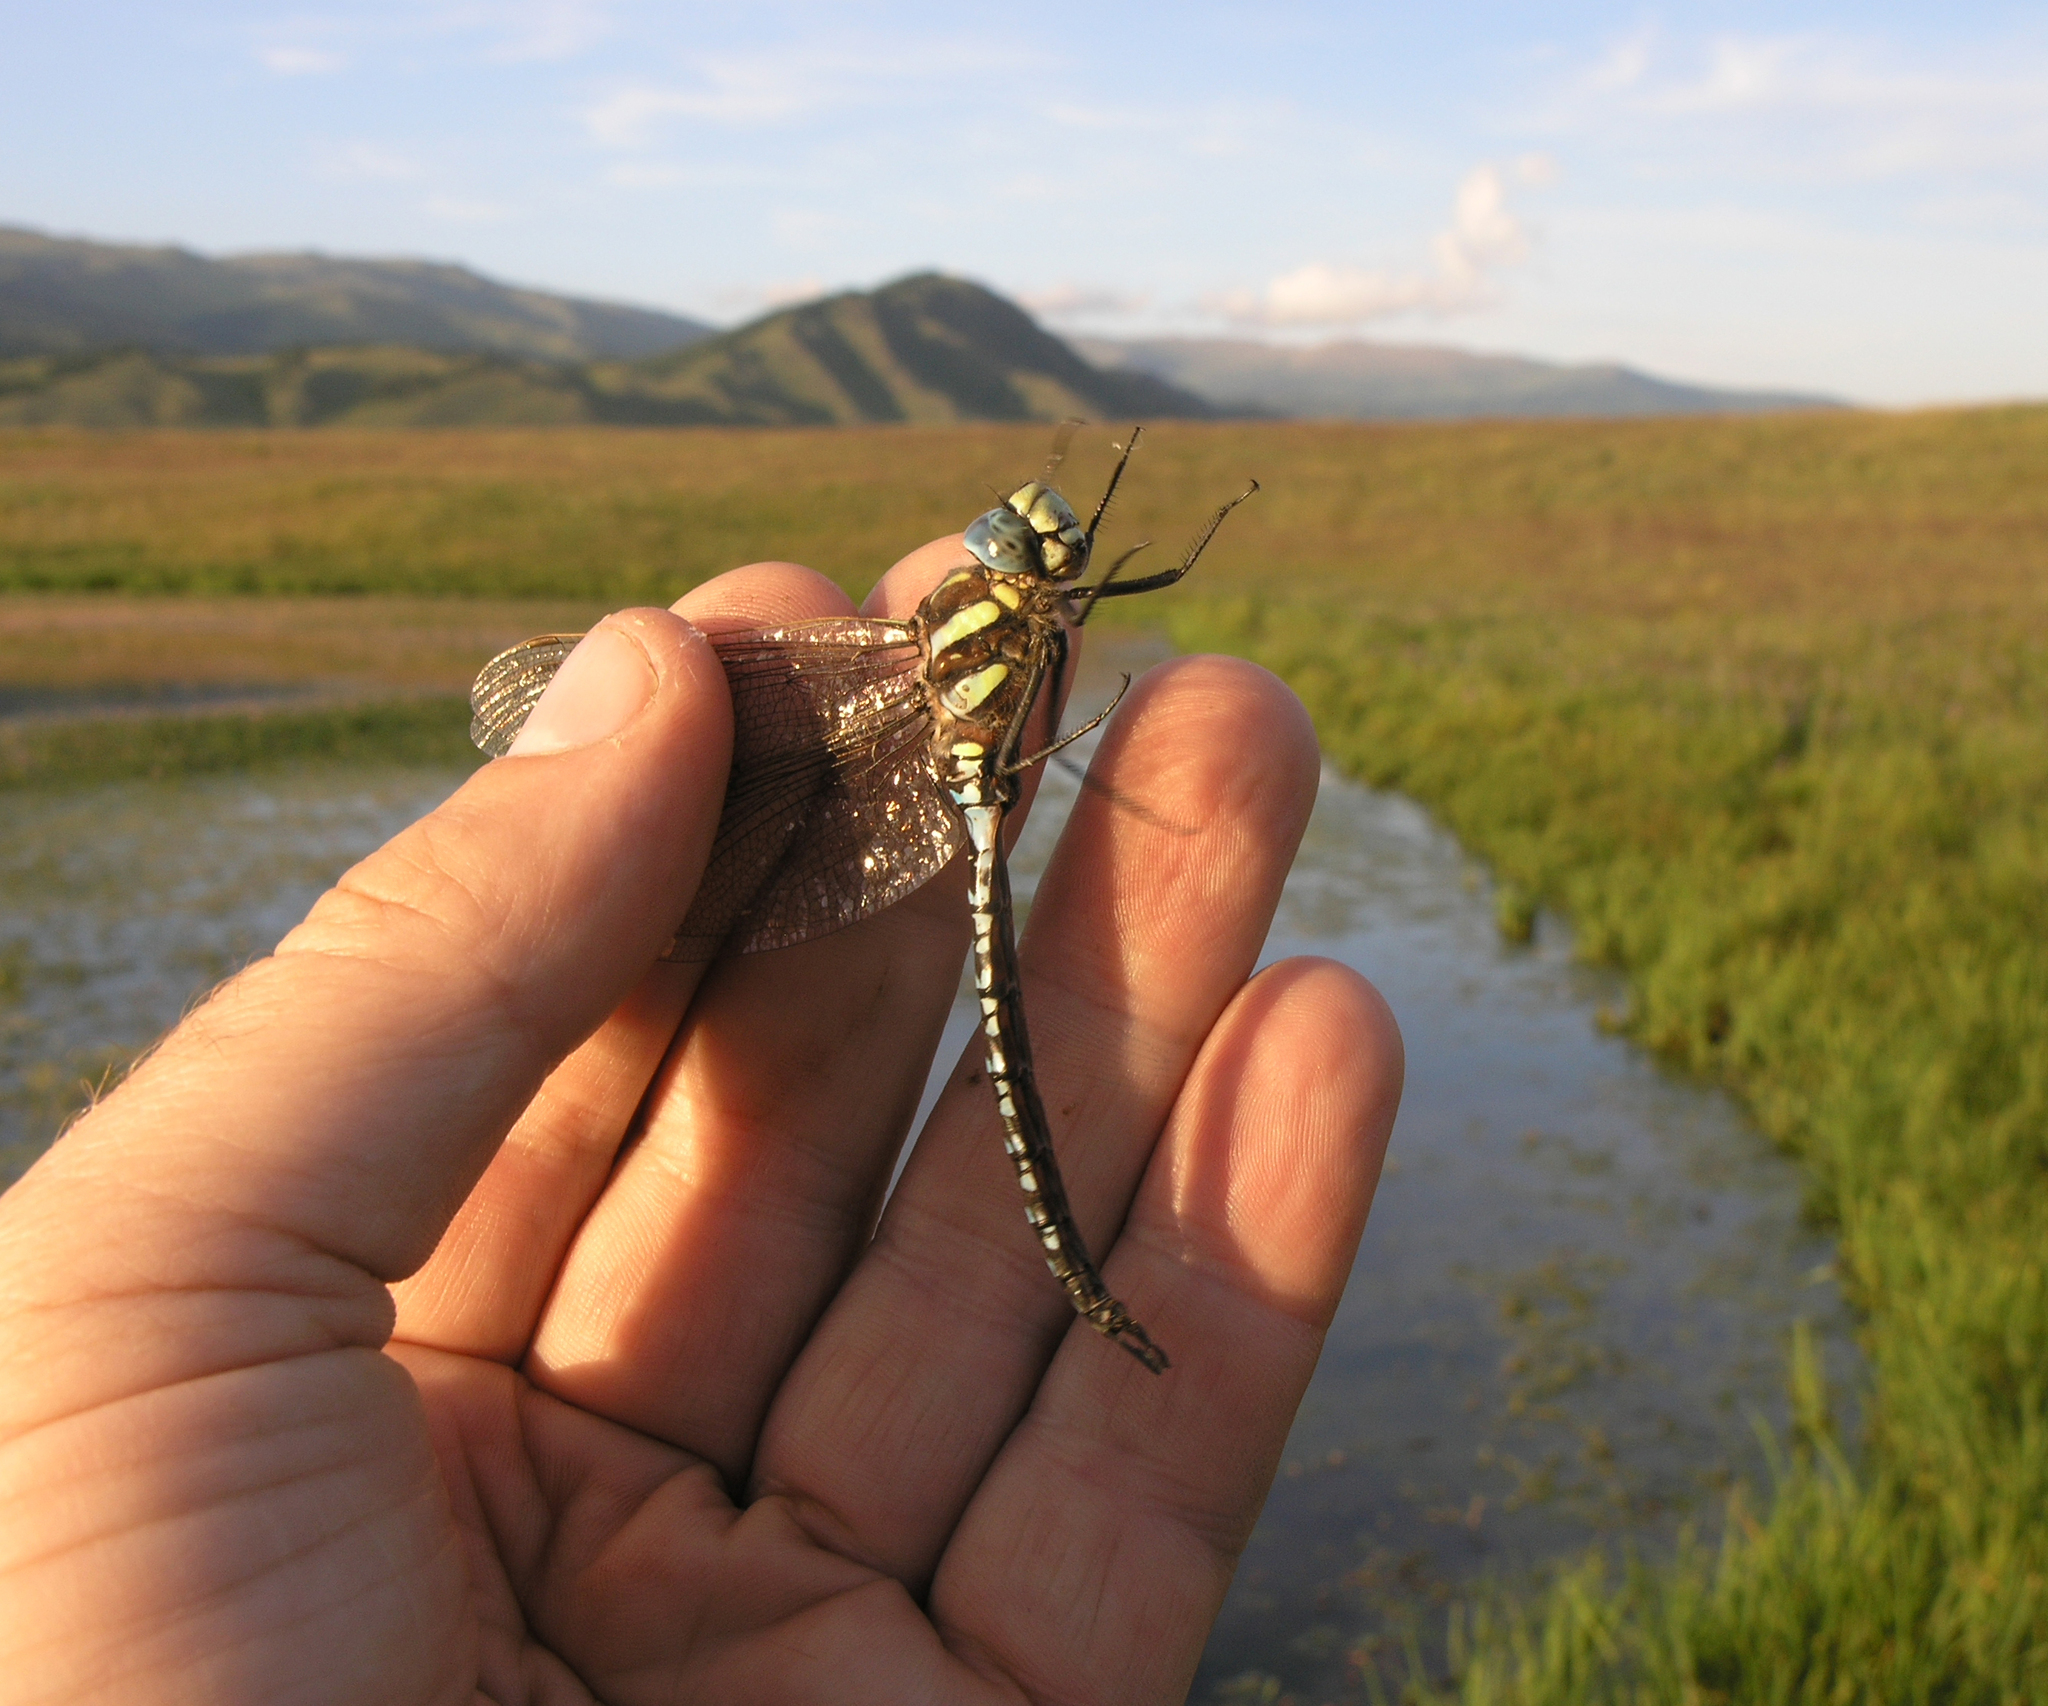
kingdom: Animalia
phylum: Arthropoda
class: Insecta
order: Odonata
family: Aeshnidae
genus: Aeshna
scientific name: Aeshna juncea
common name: Moorland hawker
